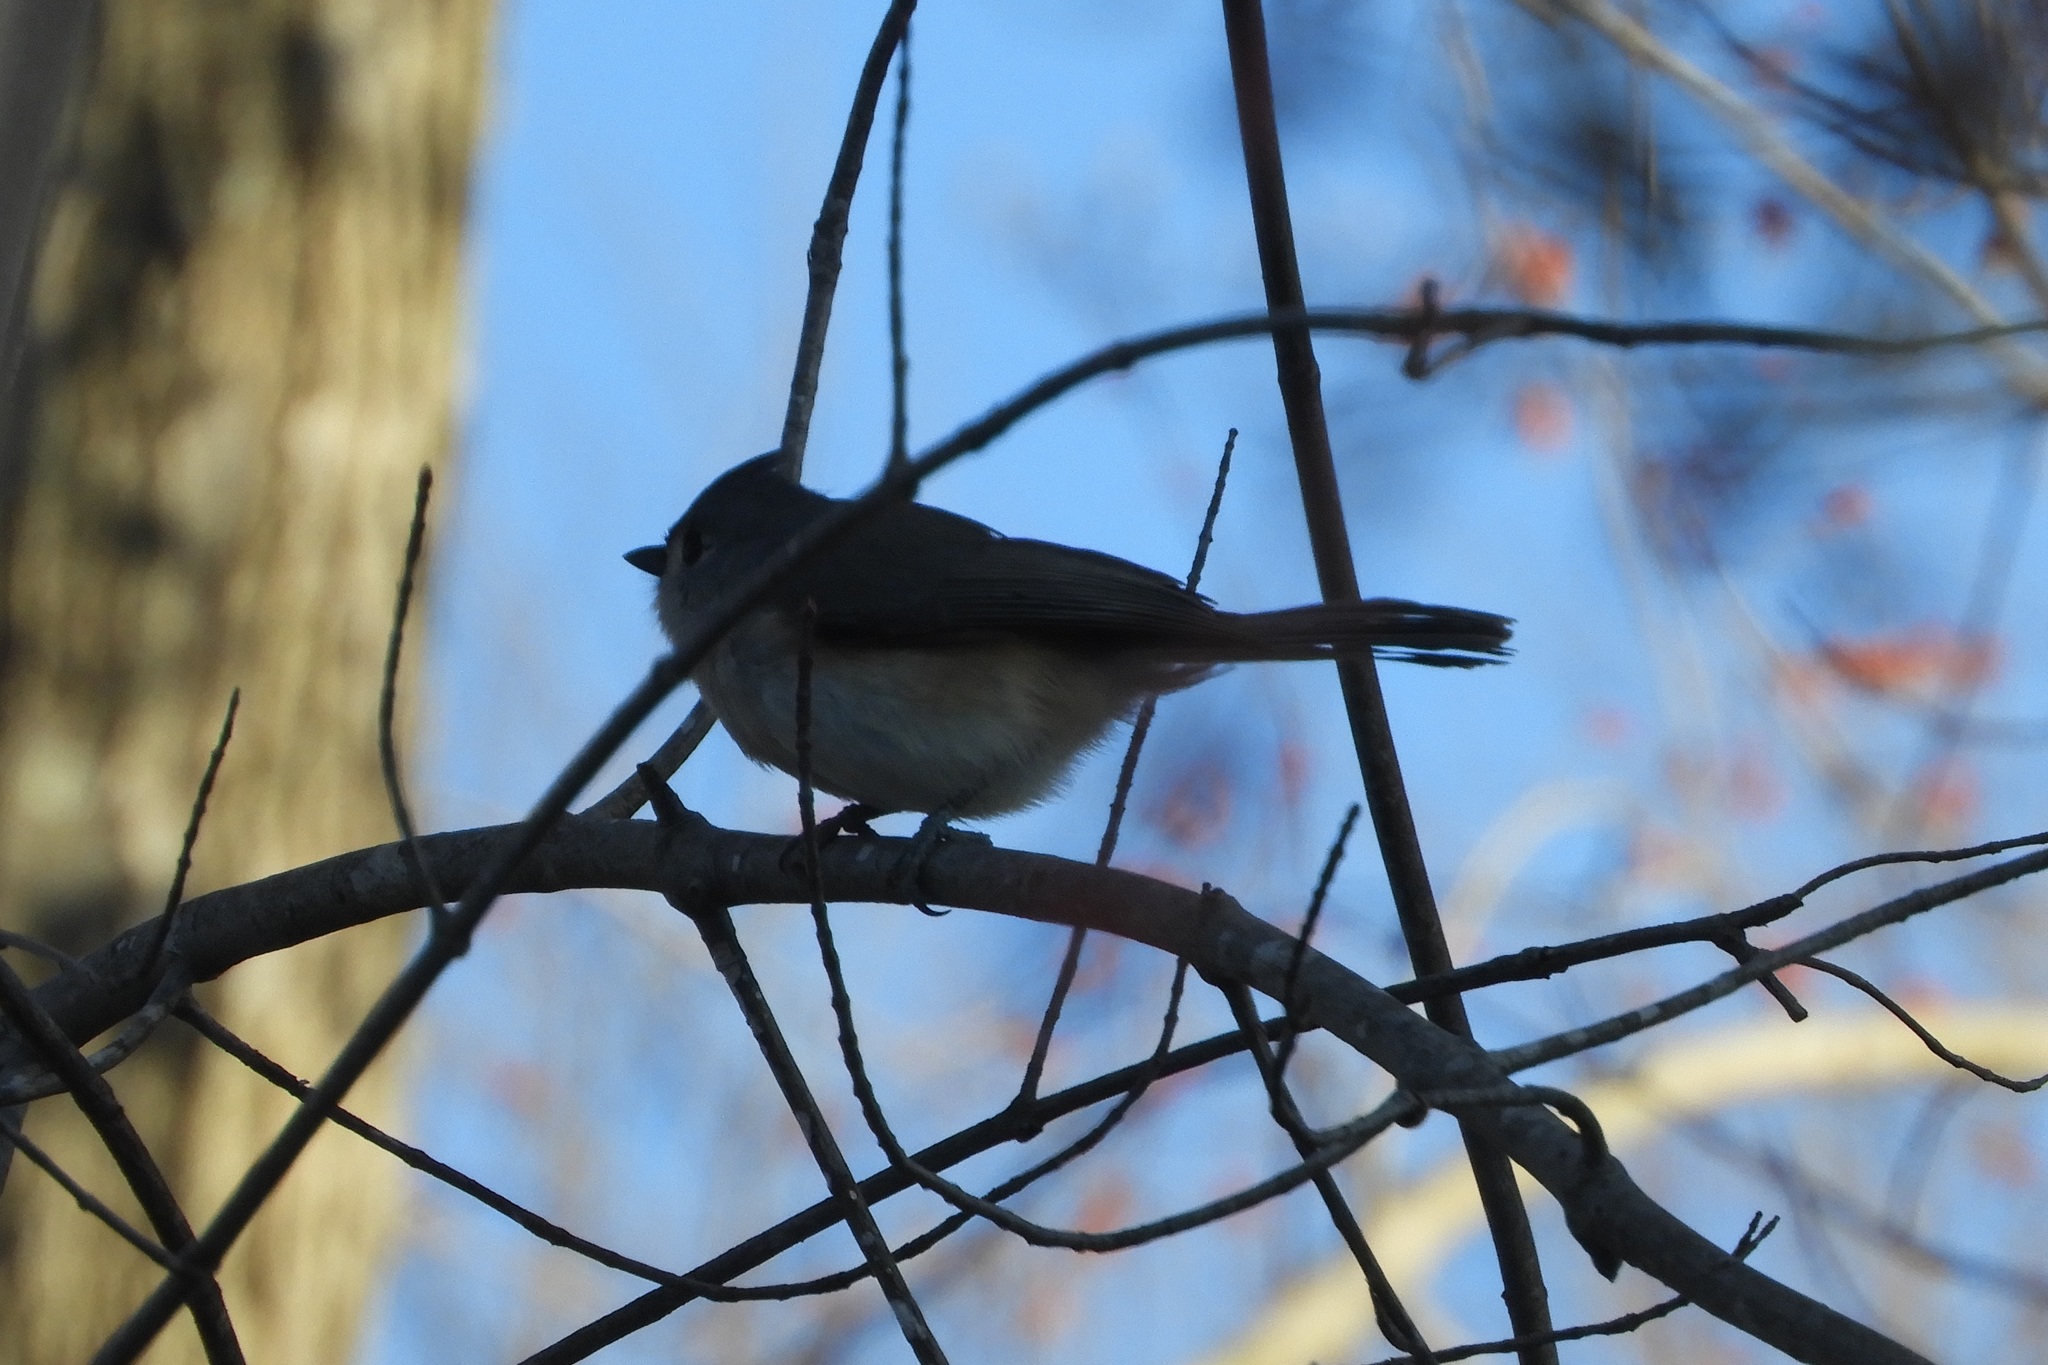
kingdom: Animalia
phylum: Chordata
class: Aves
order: Passeriformes
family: Paridae
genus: Baeolophus
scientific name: Baeolophus bicolor
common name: Tufted titmouse
